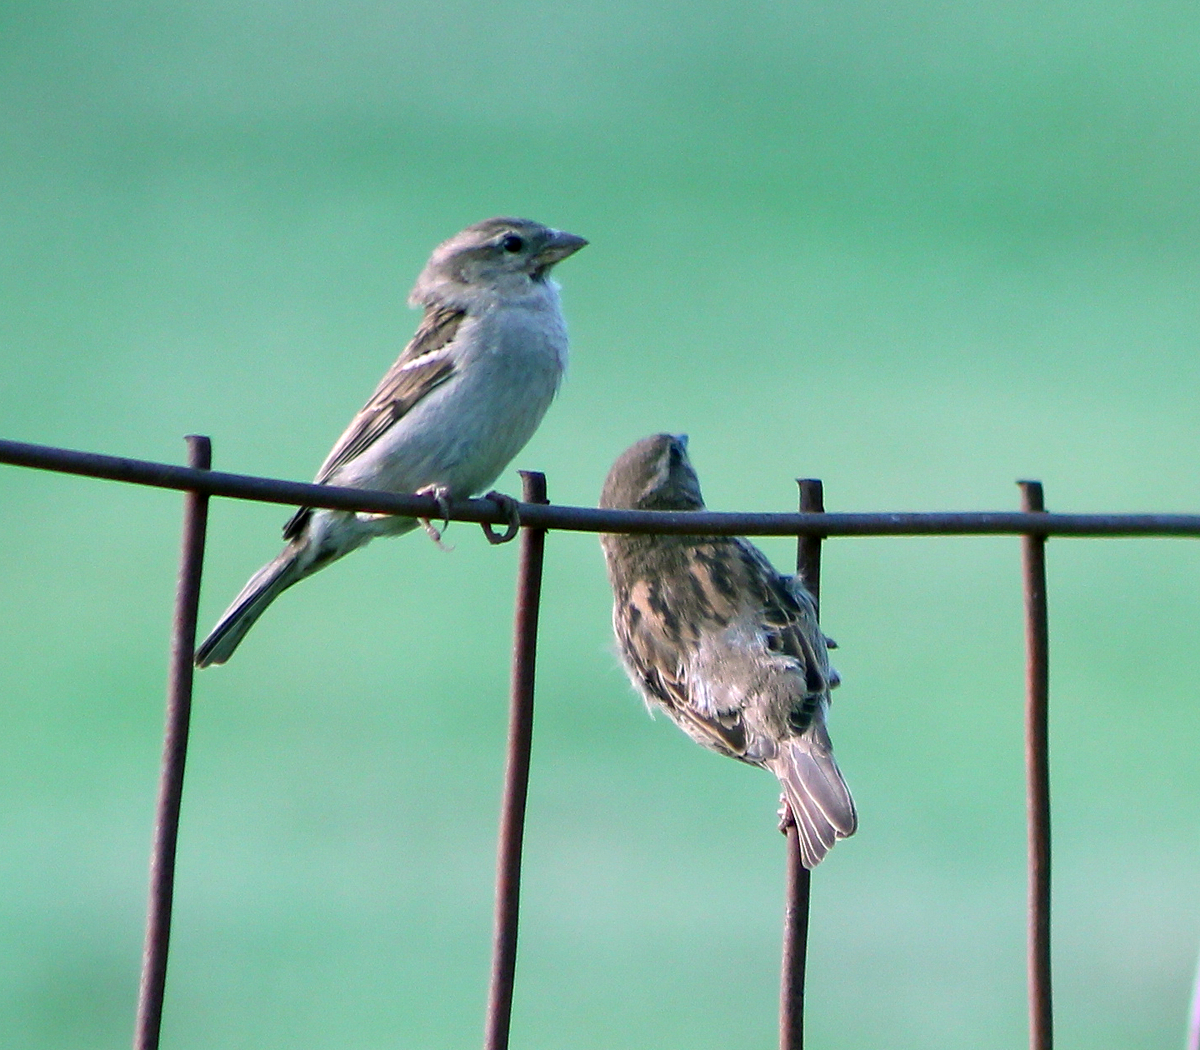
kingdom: Animalia
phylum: Chordata
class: Aves
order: Passeriformes
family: Passeridae
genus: Passer
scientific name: Passer domesticus
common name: House sparrow
